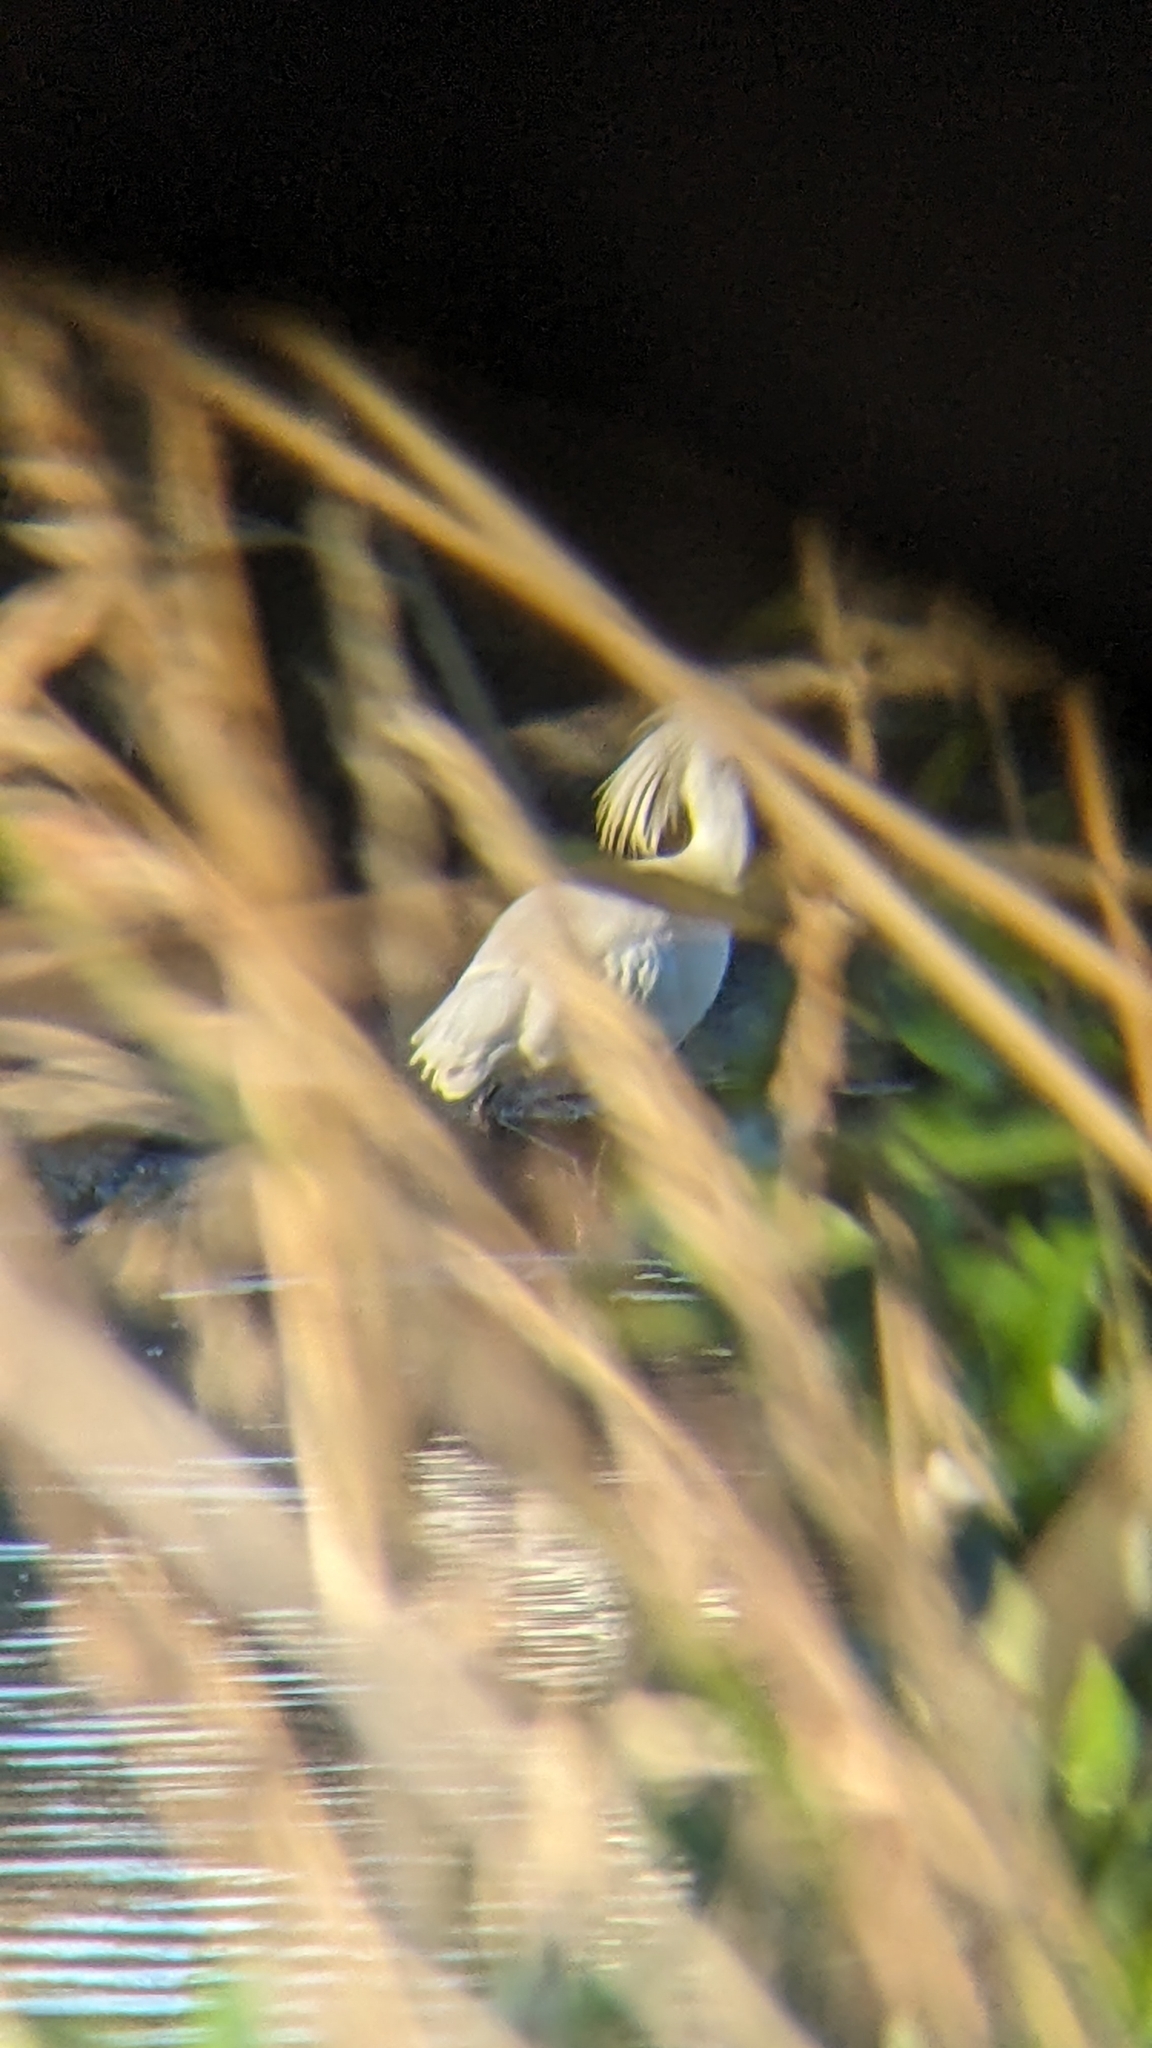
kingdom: Animalia
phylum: Chordata
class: Aves
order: Pelecaniformes
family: Threskiornithidae
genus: Platalea
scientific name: Platalea regia
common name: Royal spoonbill
